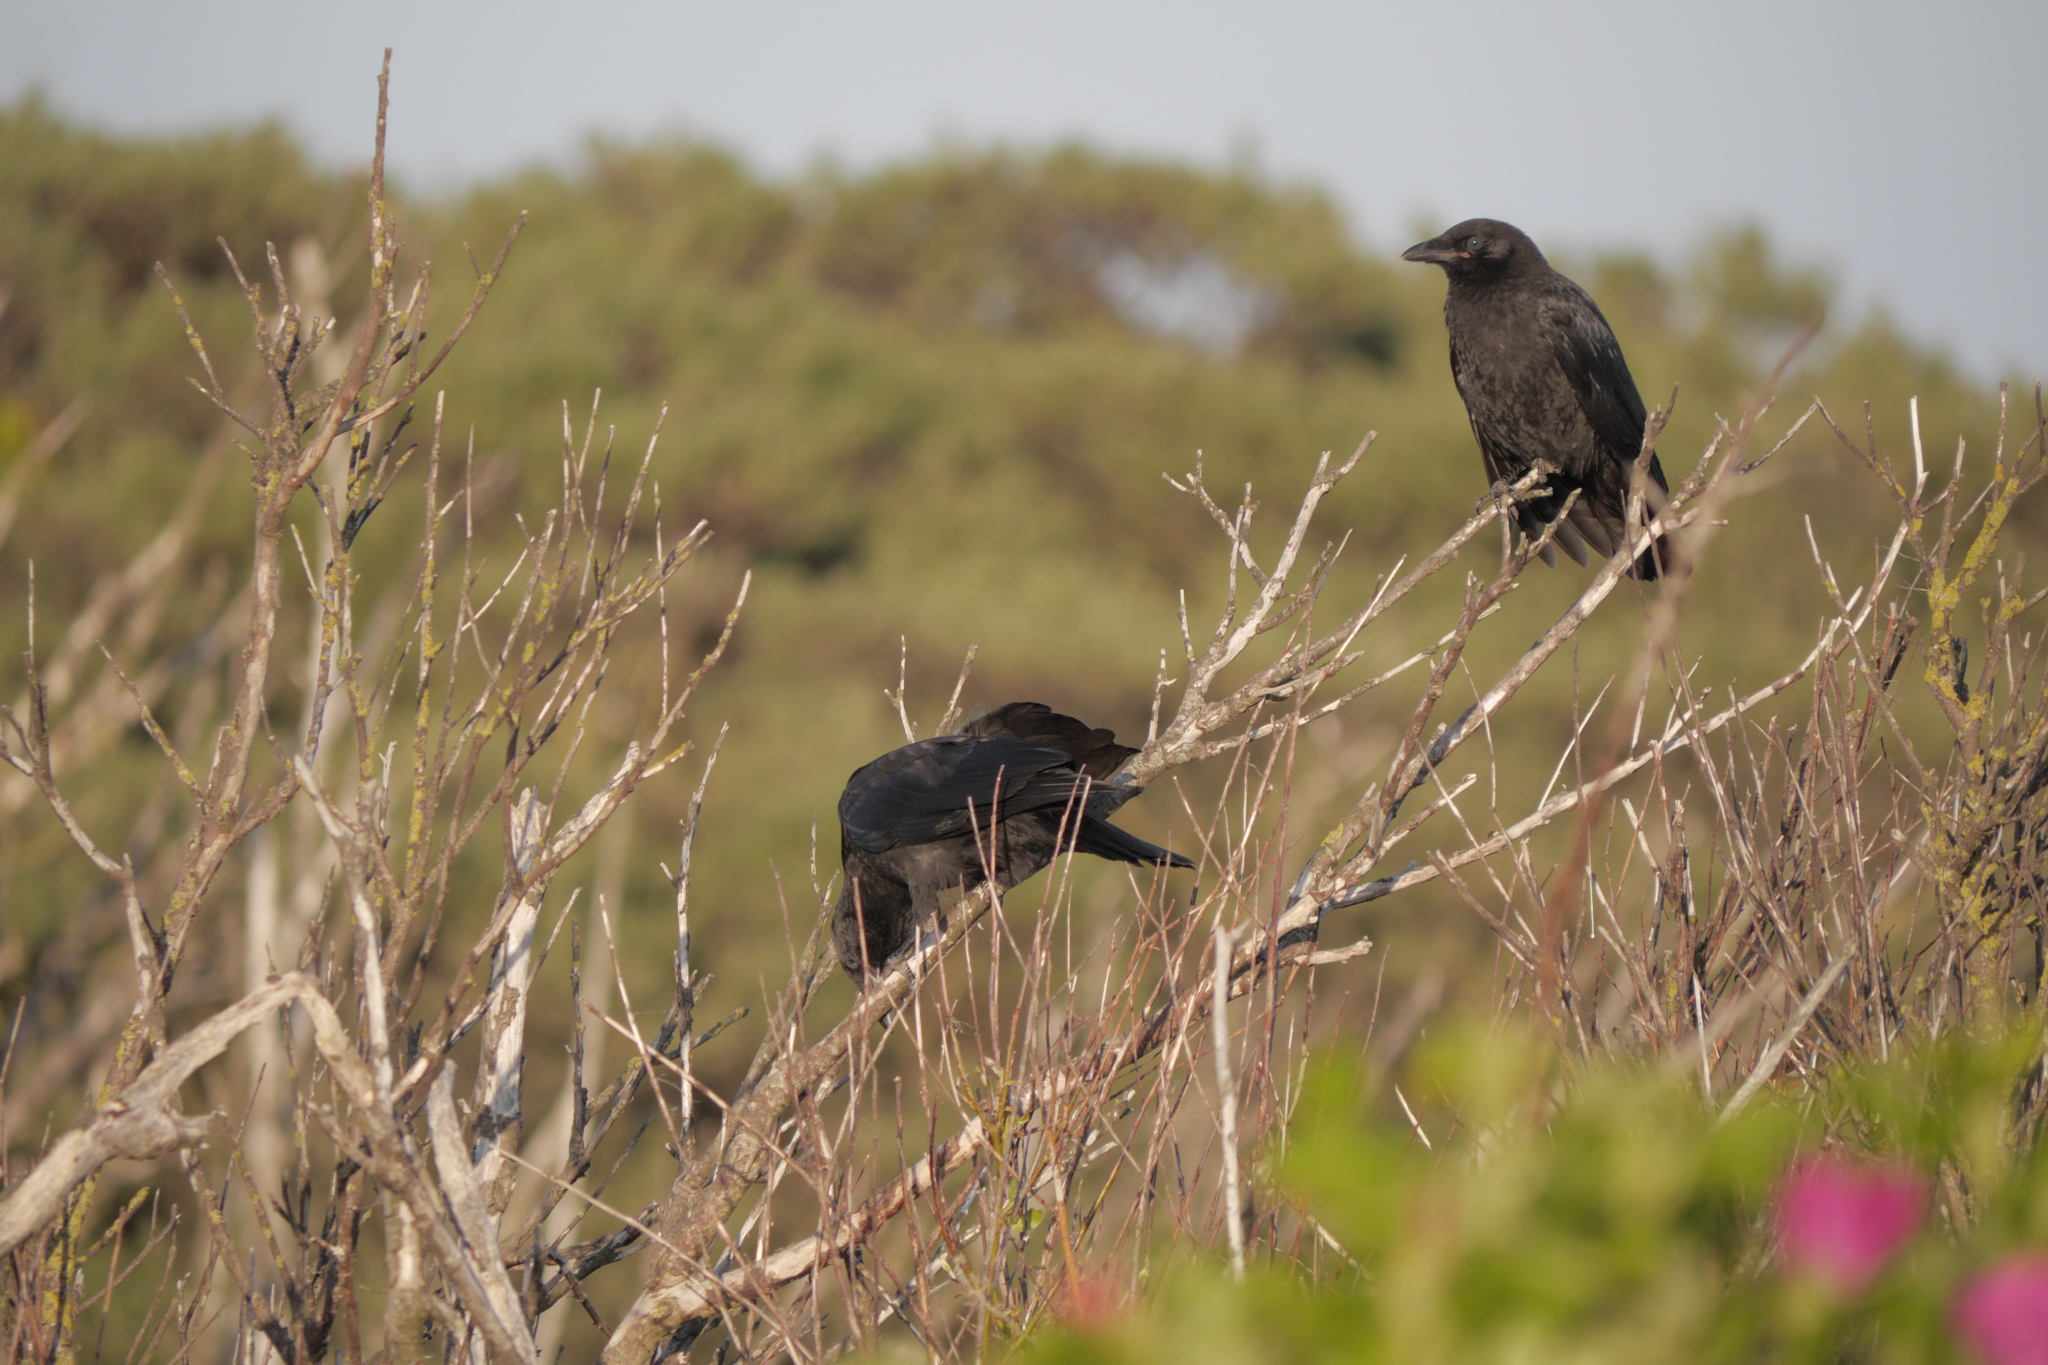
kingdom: Animalia
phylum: Chordata
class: Aves
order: Passeriformes
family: Corvidae
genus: Corvus
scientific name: Corvus corone
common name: Carrion crow
